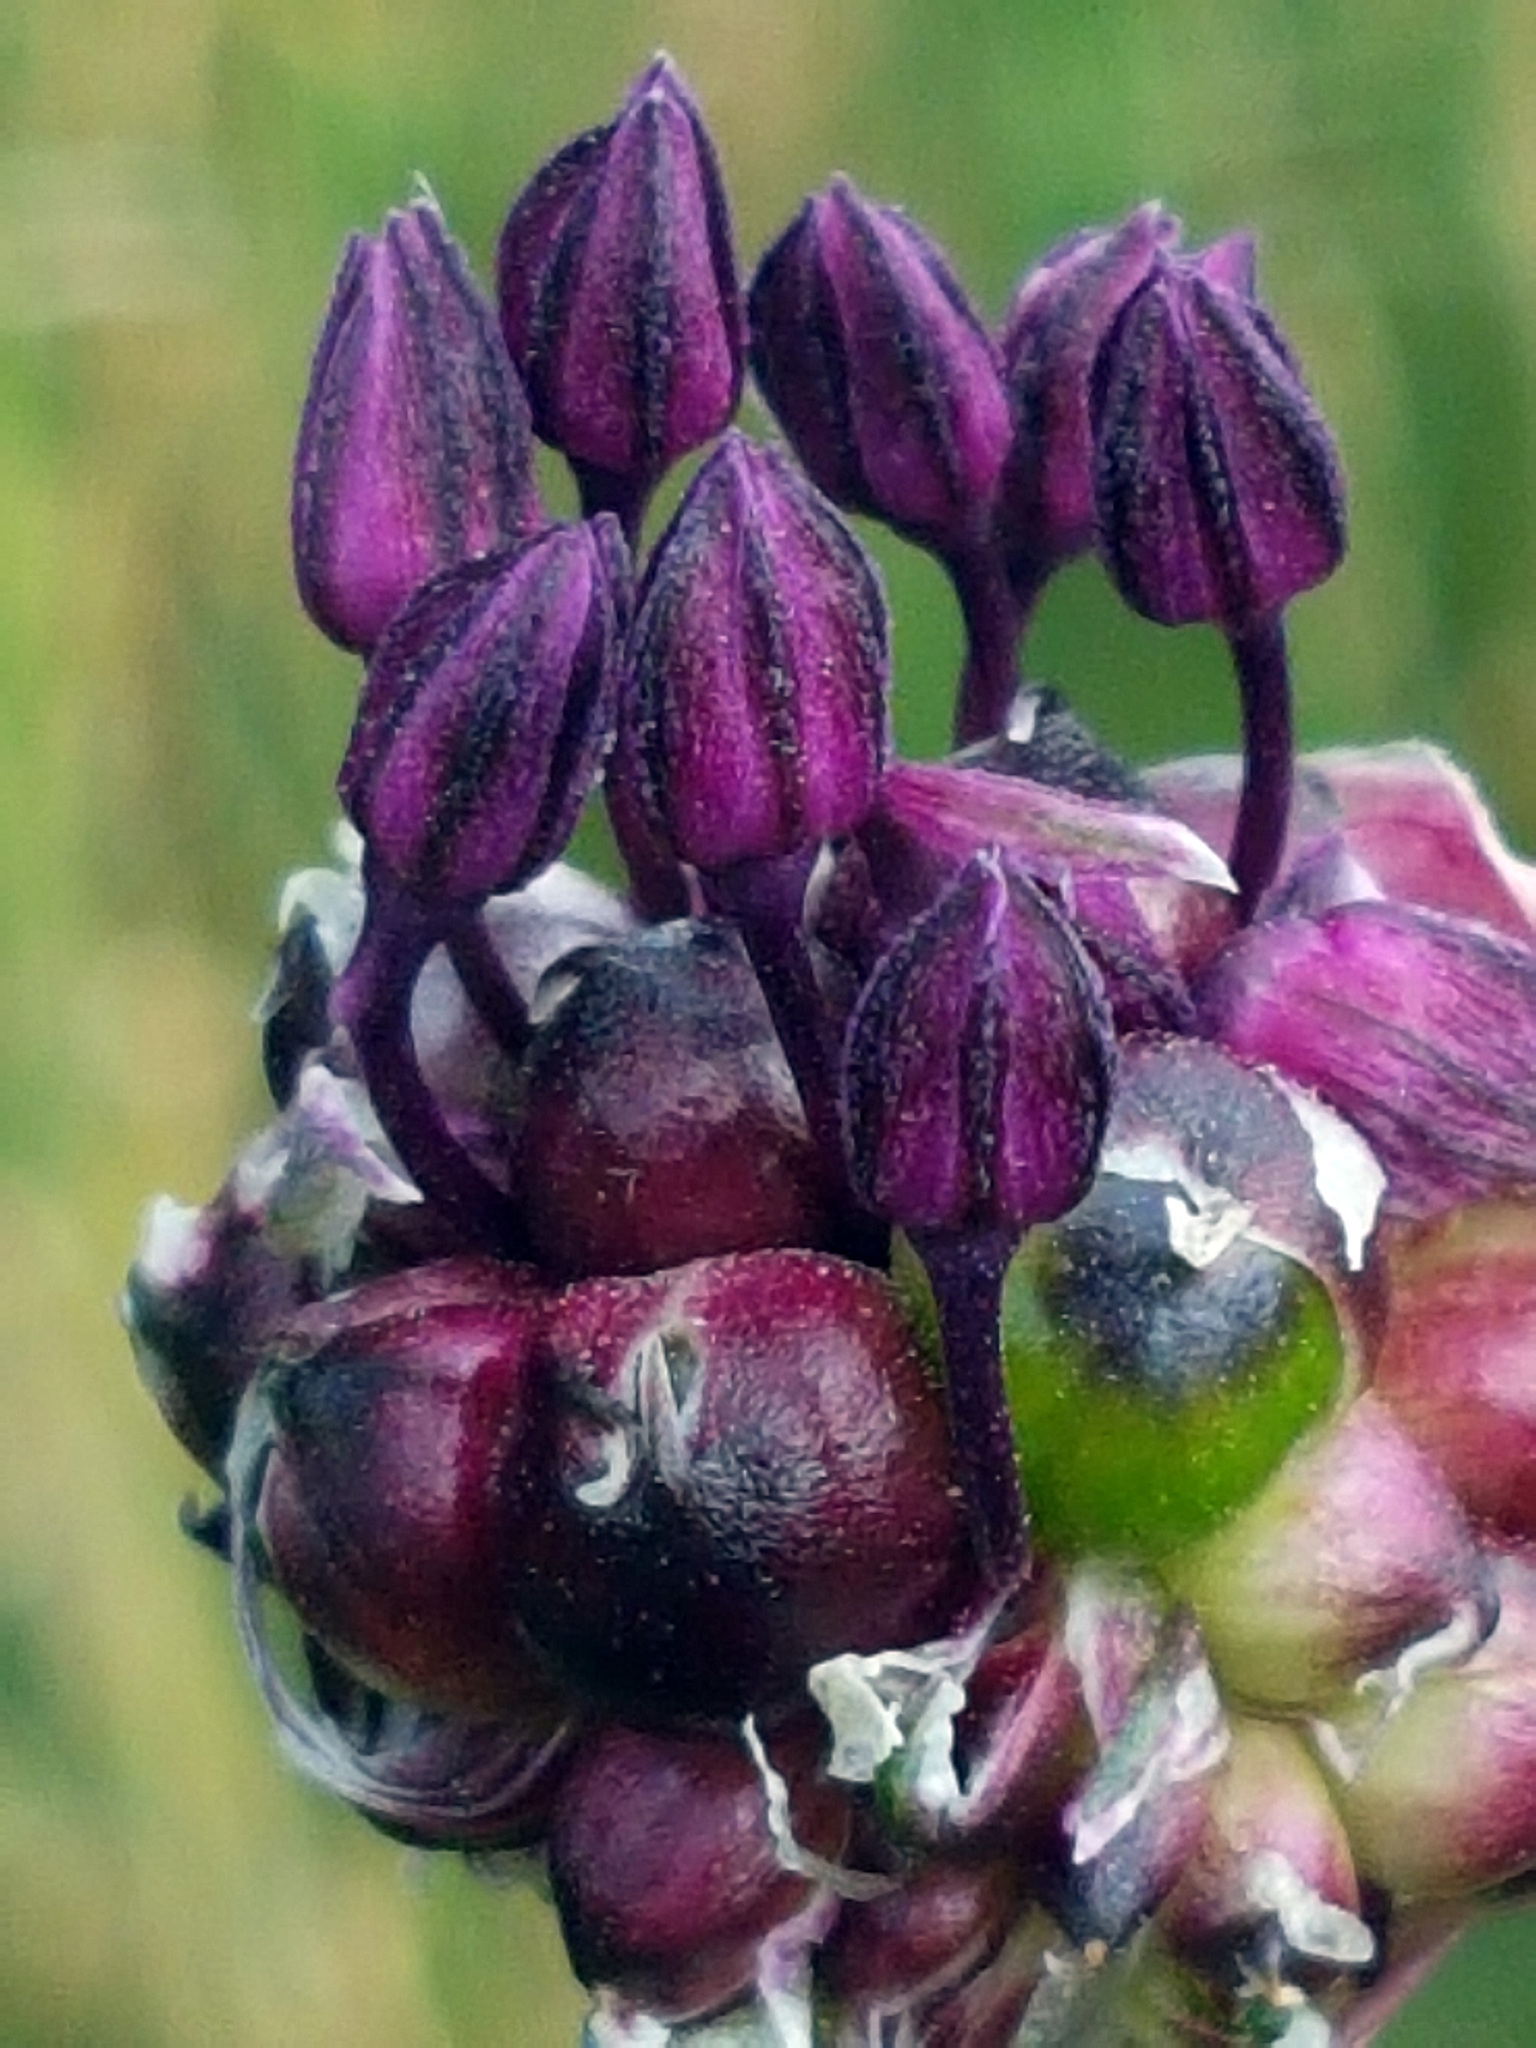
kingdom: Plantae
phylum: Tracheophyta
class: Liliopsida
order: Asparagales
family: Amaryllidaceae
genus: Allium
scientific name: Allium scorodoprasum
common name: Sand leek
